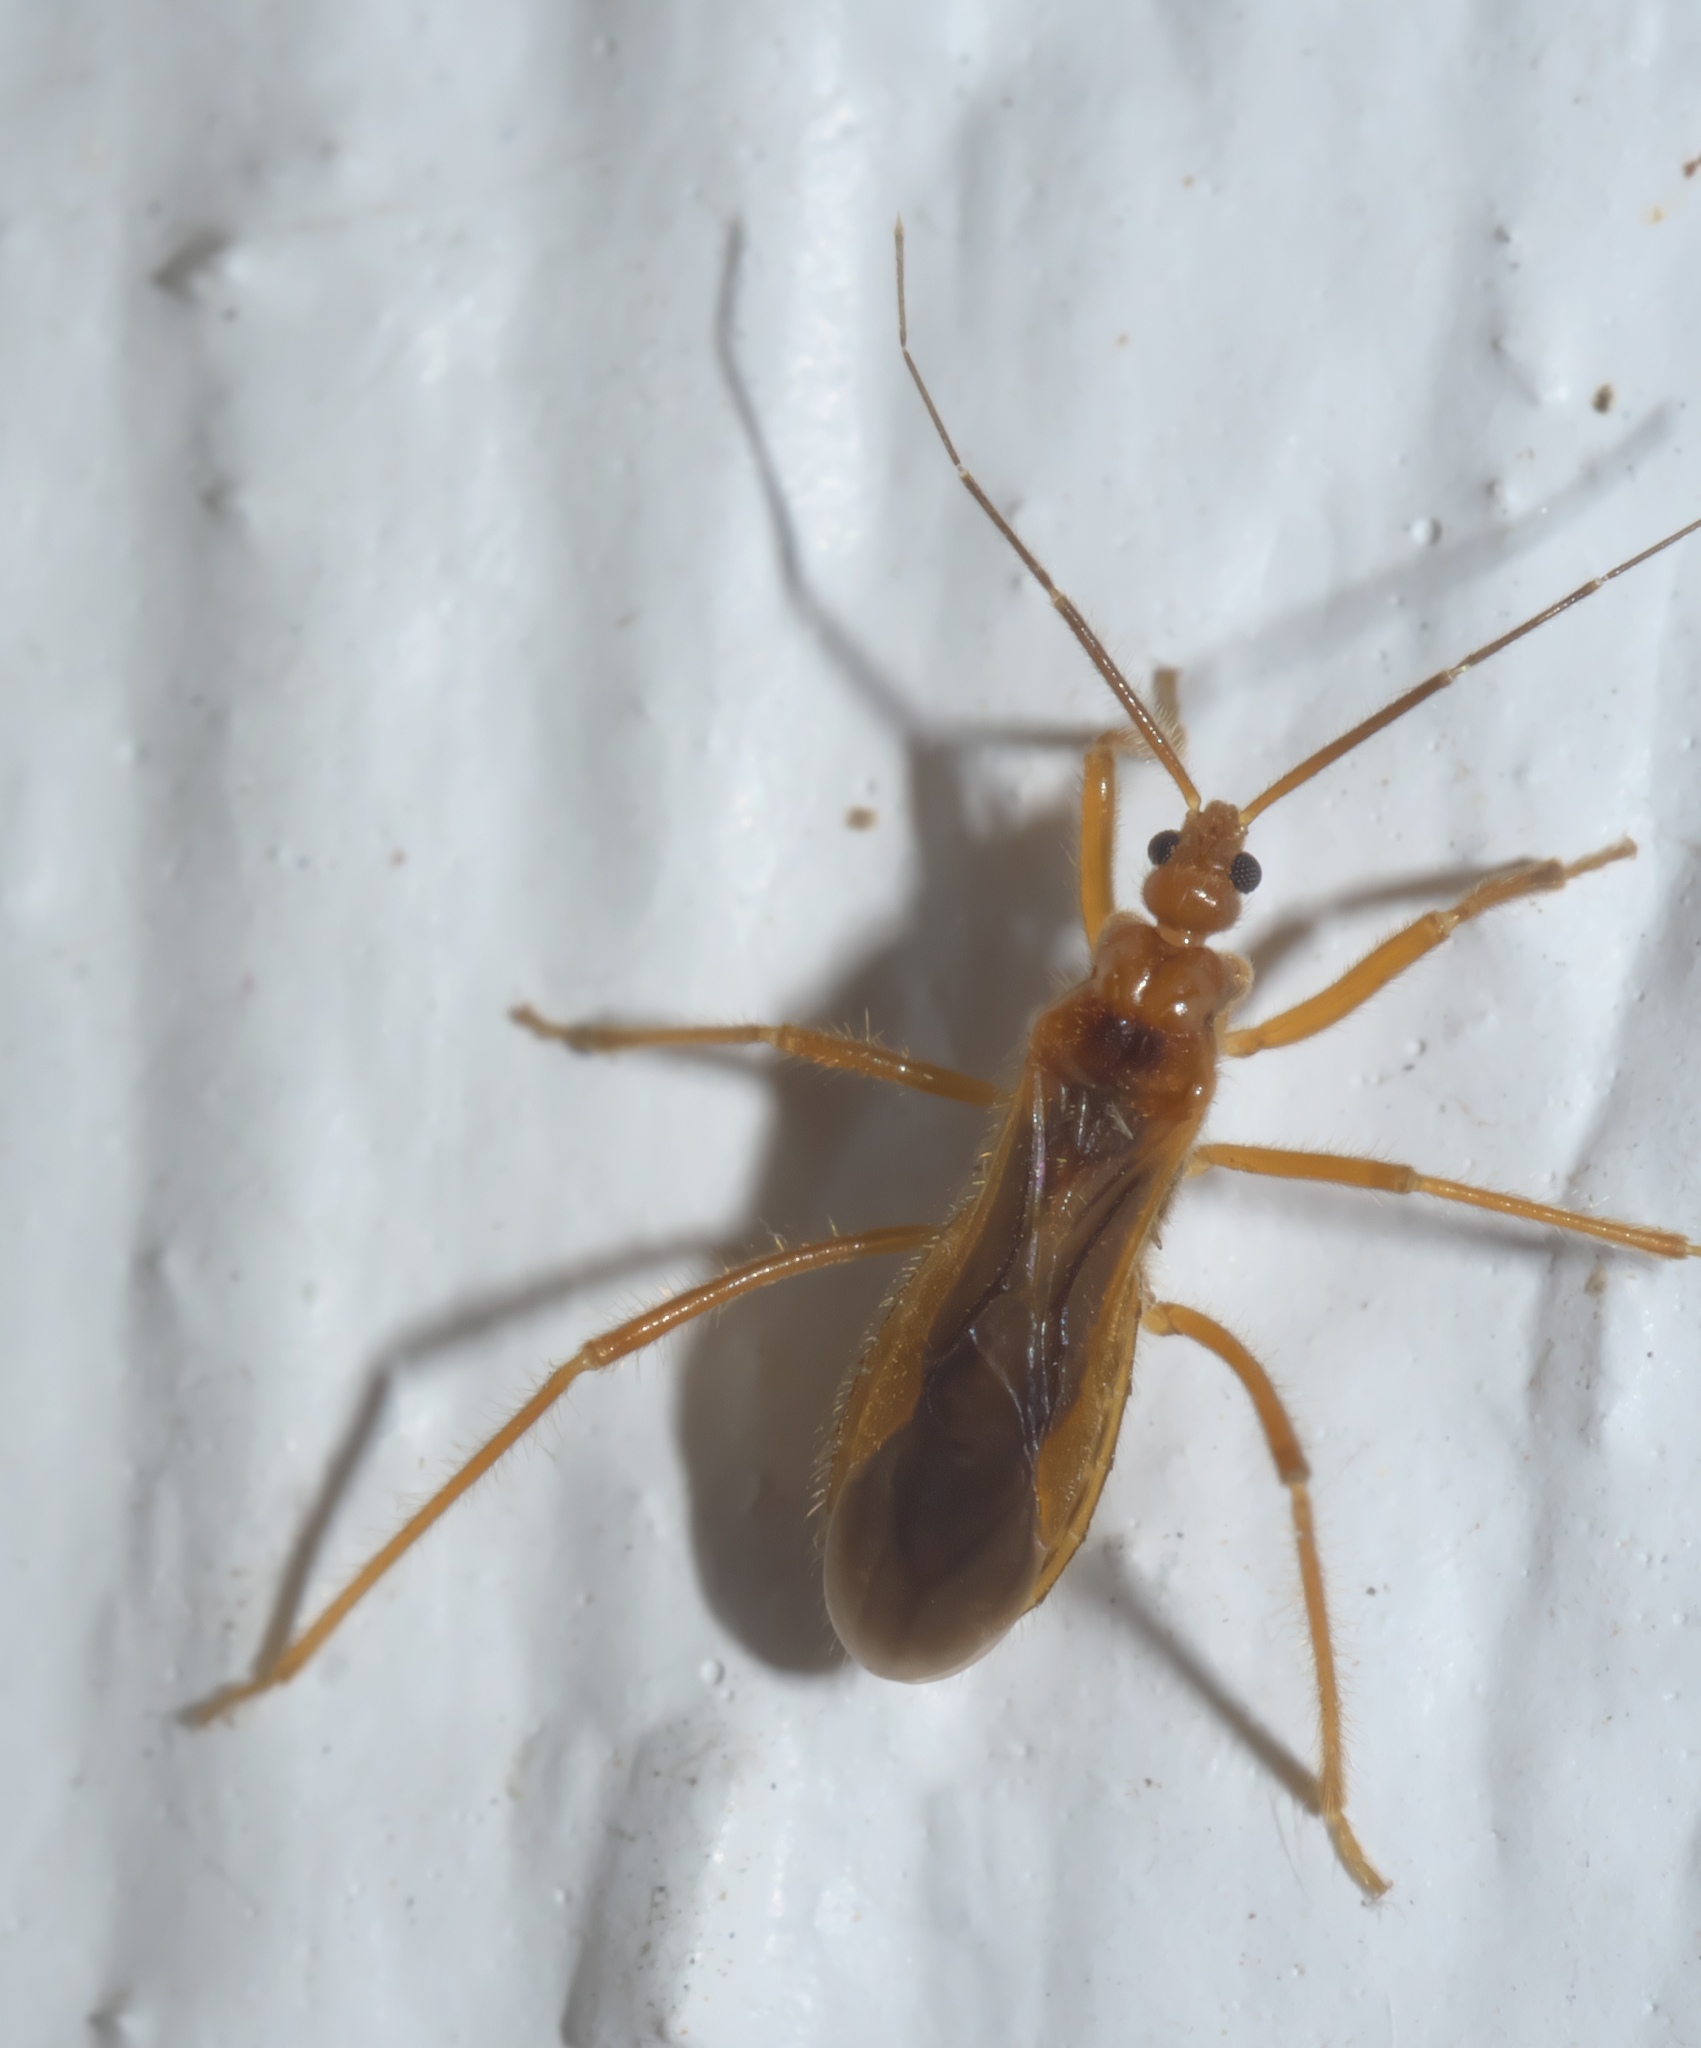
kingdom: Animalia
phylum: Arthropoda
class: Insecta
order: Hemiptera
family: Reduviidae
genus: Oncerotrachelus
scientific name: Oncerotrachelus acuminatus
